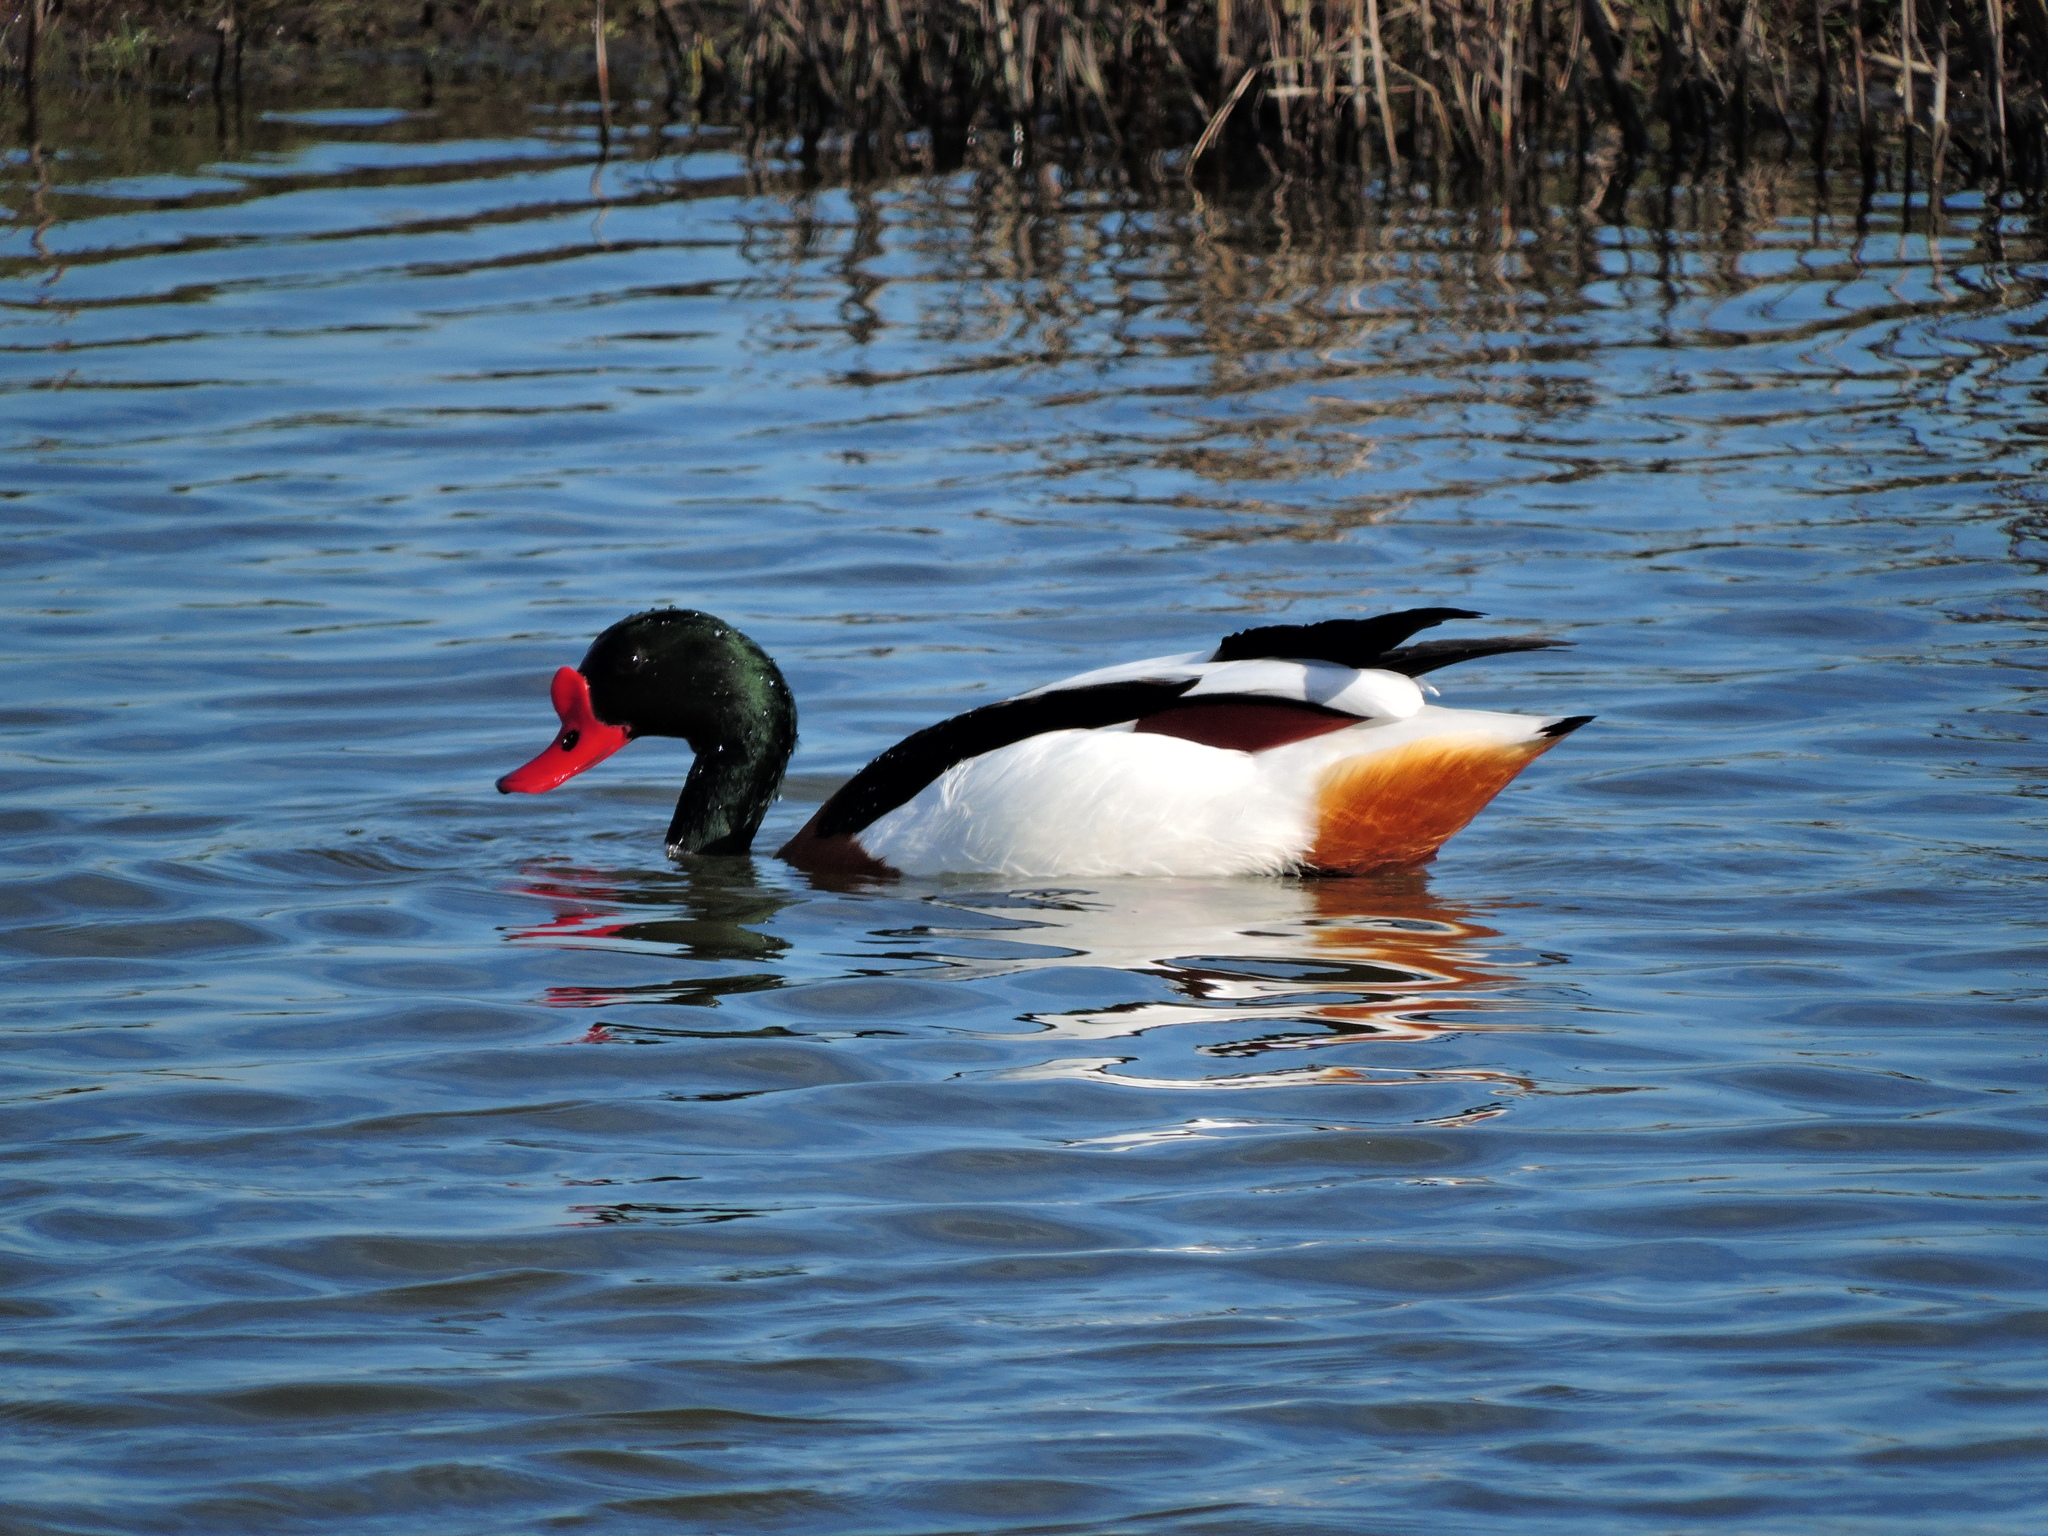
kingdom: Animalia
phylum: Chordata
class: Aves
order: Anseriformes
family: Anatidae
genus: Tadorna
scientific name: Tadorna tadorna
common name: Common shelduck
